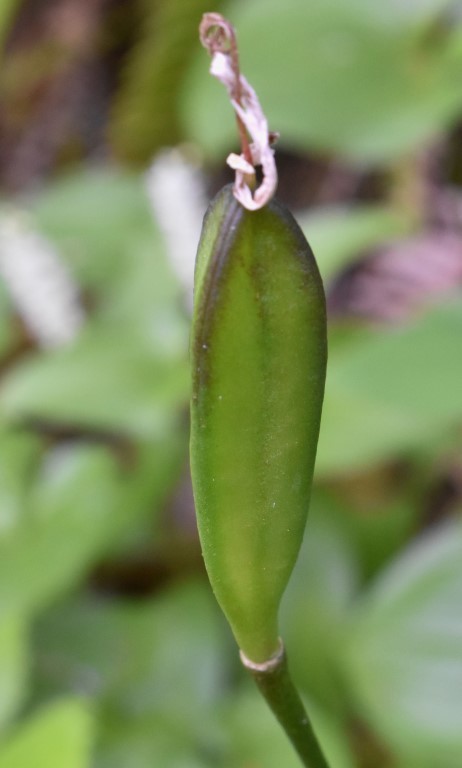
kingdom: Plantae
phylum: Tracheophyta
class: Liliopsida
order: Liliales
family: Liliaceae
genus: Erythronium
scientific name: Erythronium revolutum
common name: Pink fawn-lily
